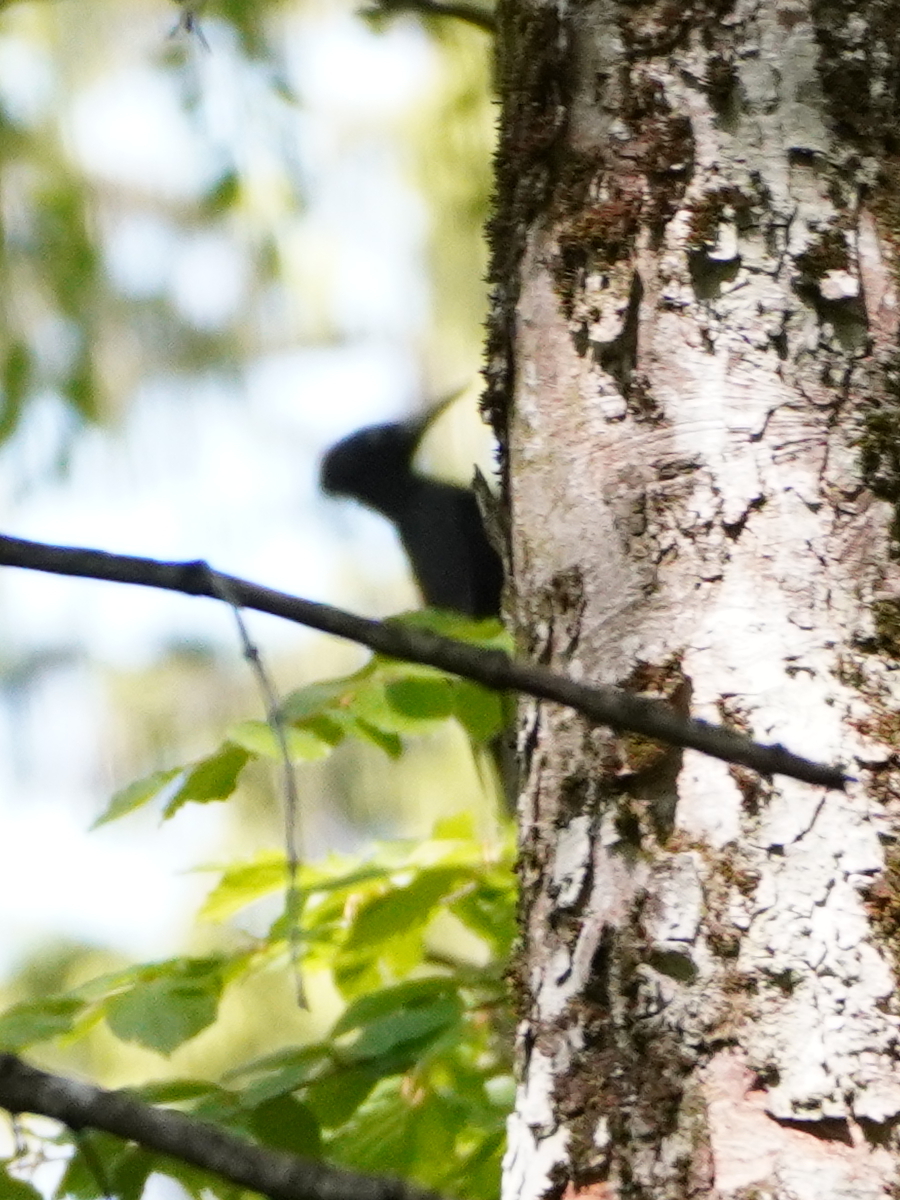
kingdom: Animalia
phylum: Chordata
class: Aves
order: Piciformes
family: Picidae
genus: Dryocopus
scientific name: Dryocopus martius
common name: Black woodpecker
